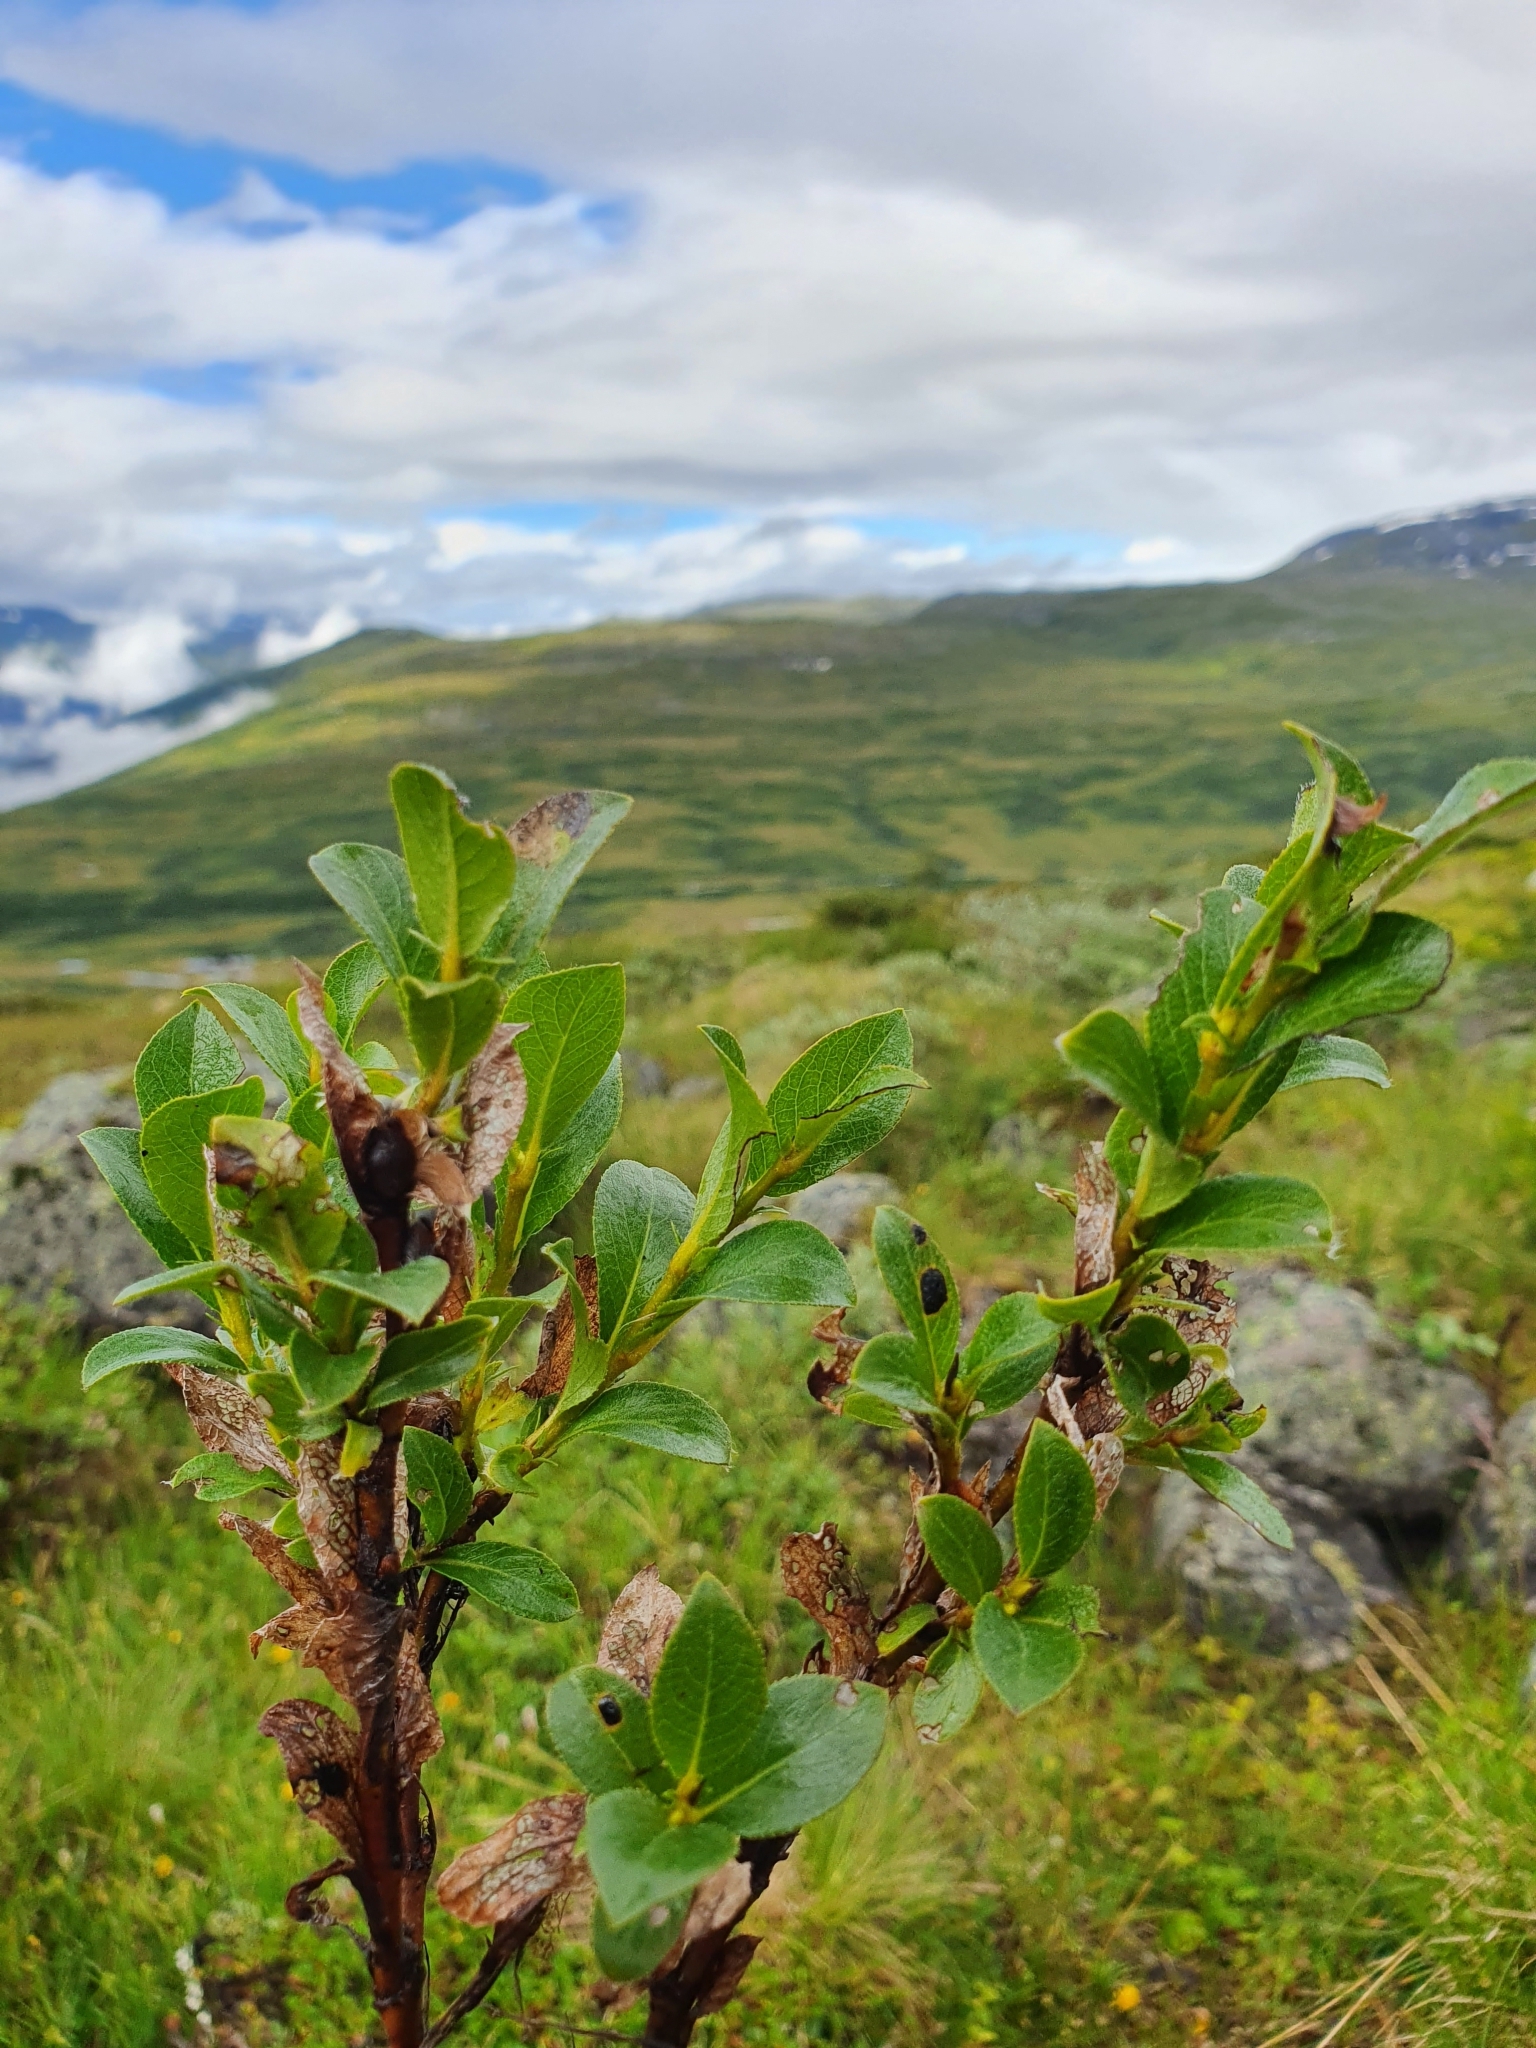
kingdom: Plantae
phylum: Tracheophyta
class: Magnoliopsida
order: Malpighiales
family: Salicaceae
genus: Salix
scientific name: Salix myrsinites
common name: Myrtle willow
